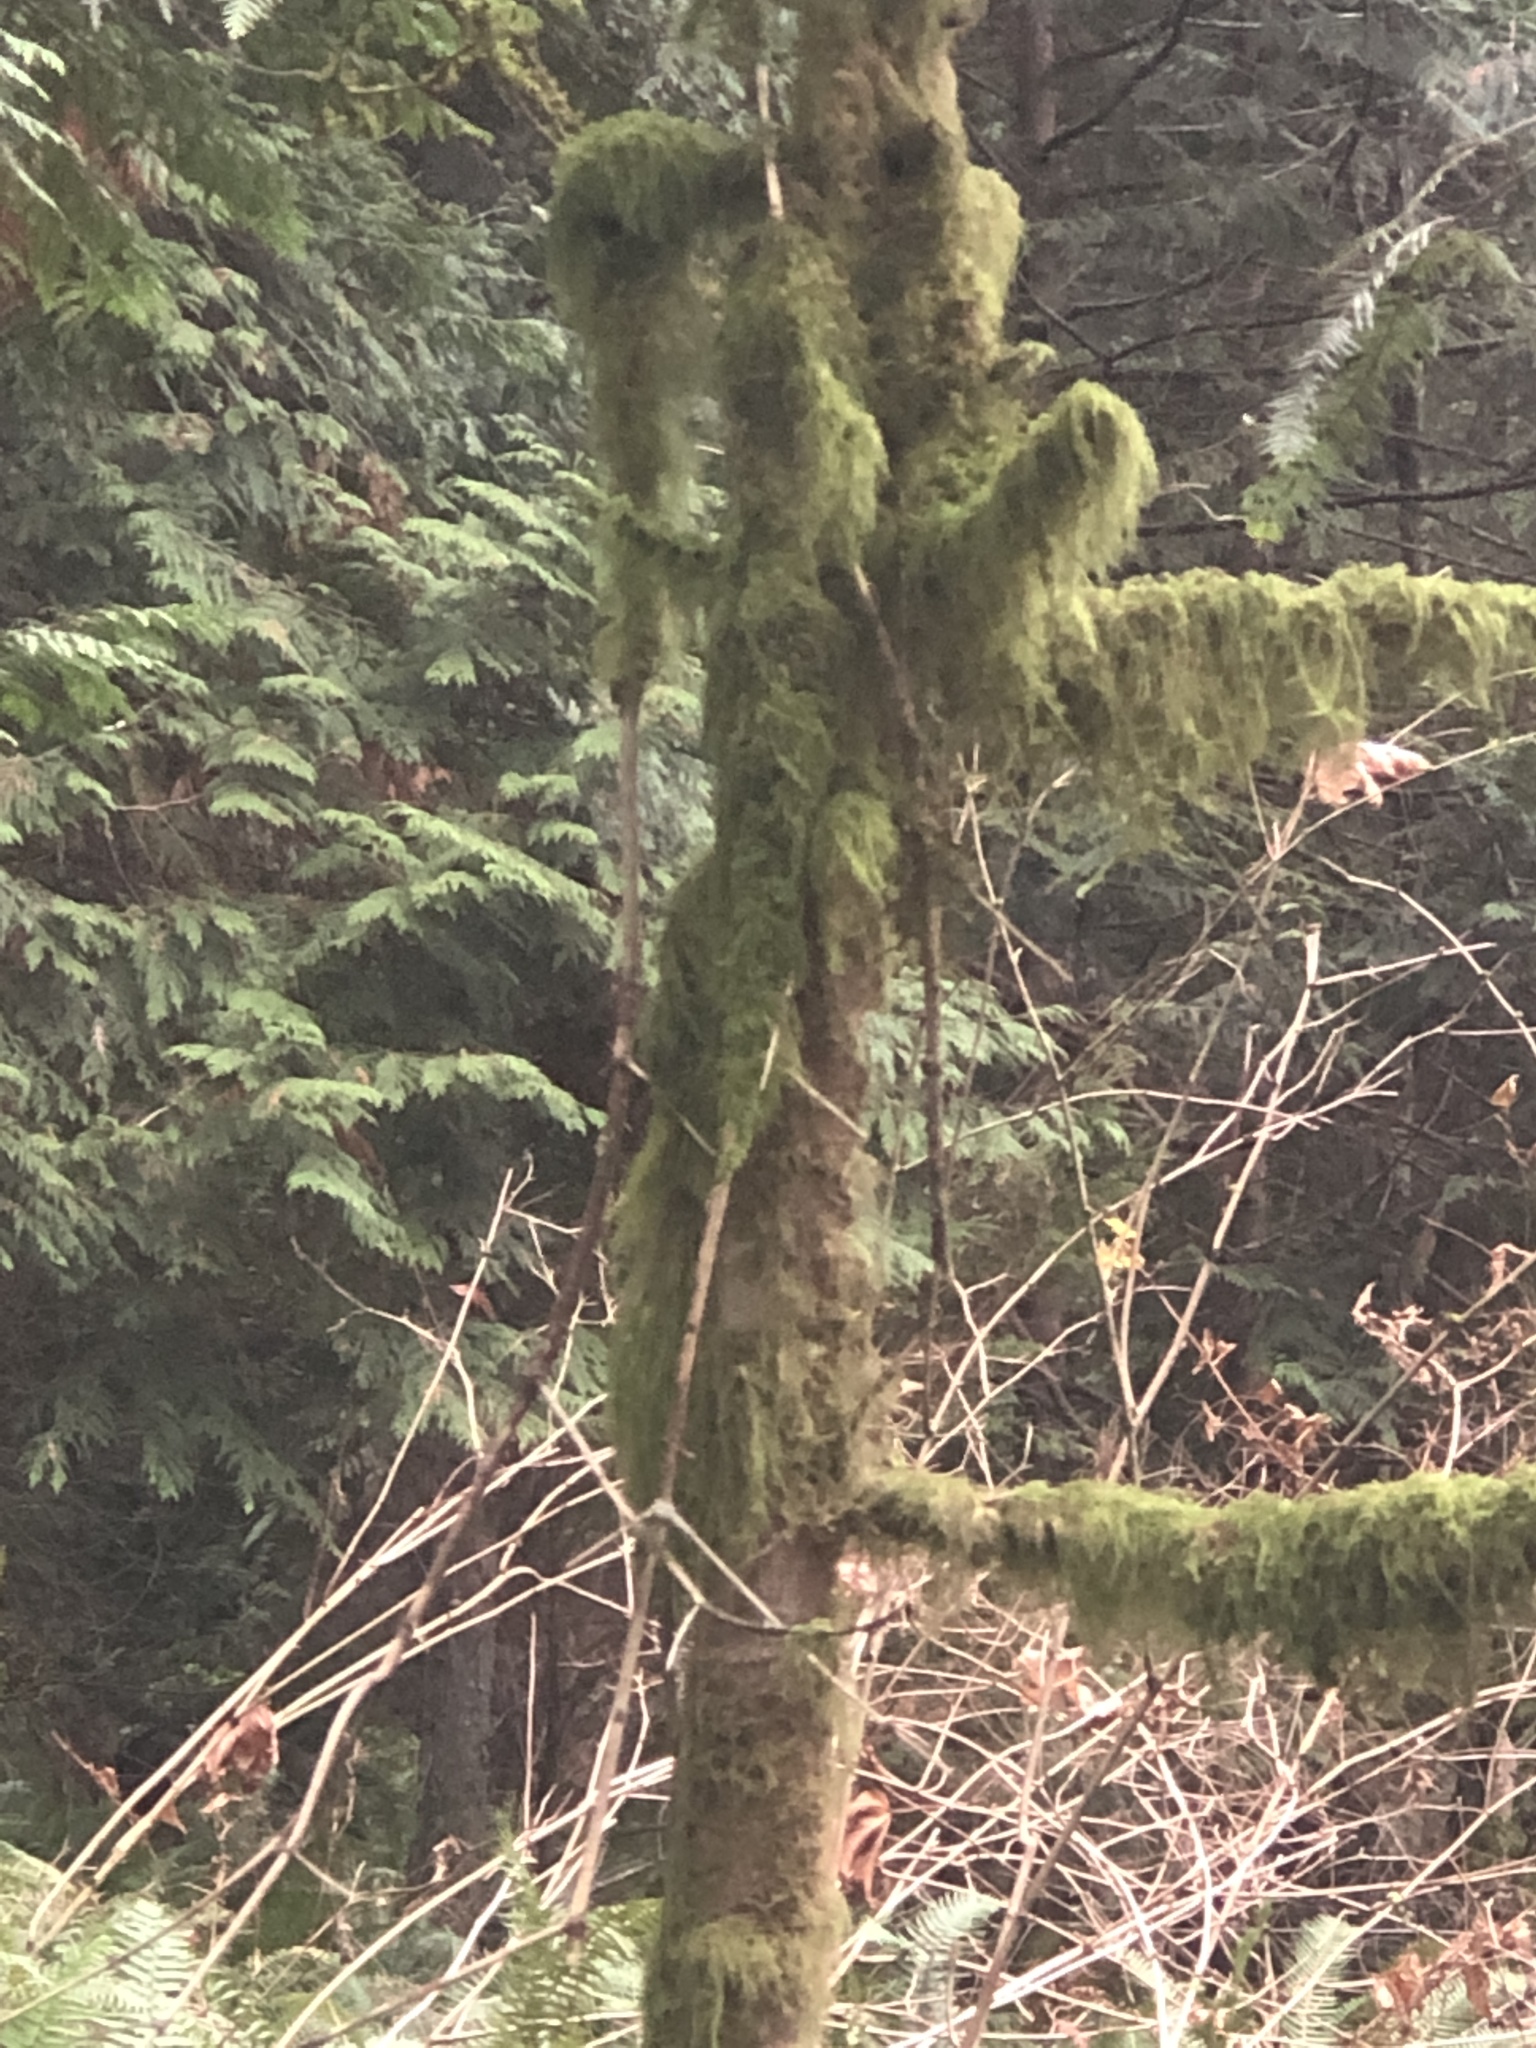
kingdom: Plantae
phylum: Tracheophyta
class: Pinopsida
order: Pinales
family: Pinaceae
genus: Abies
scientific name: Abies grandis
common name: Giant fir
